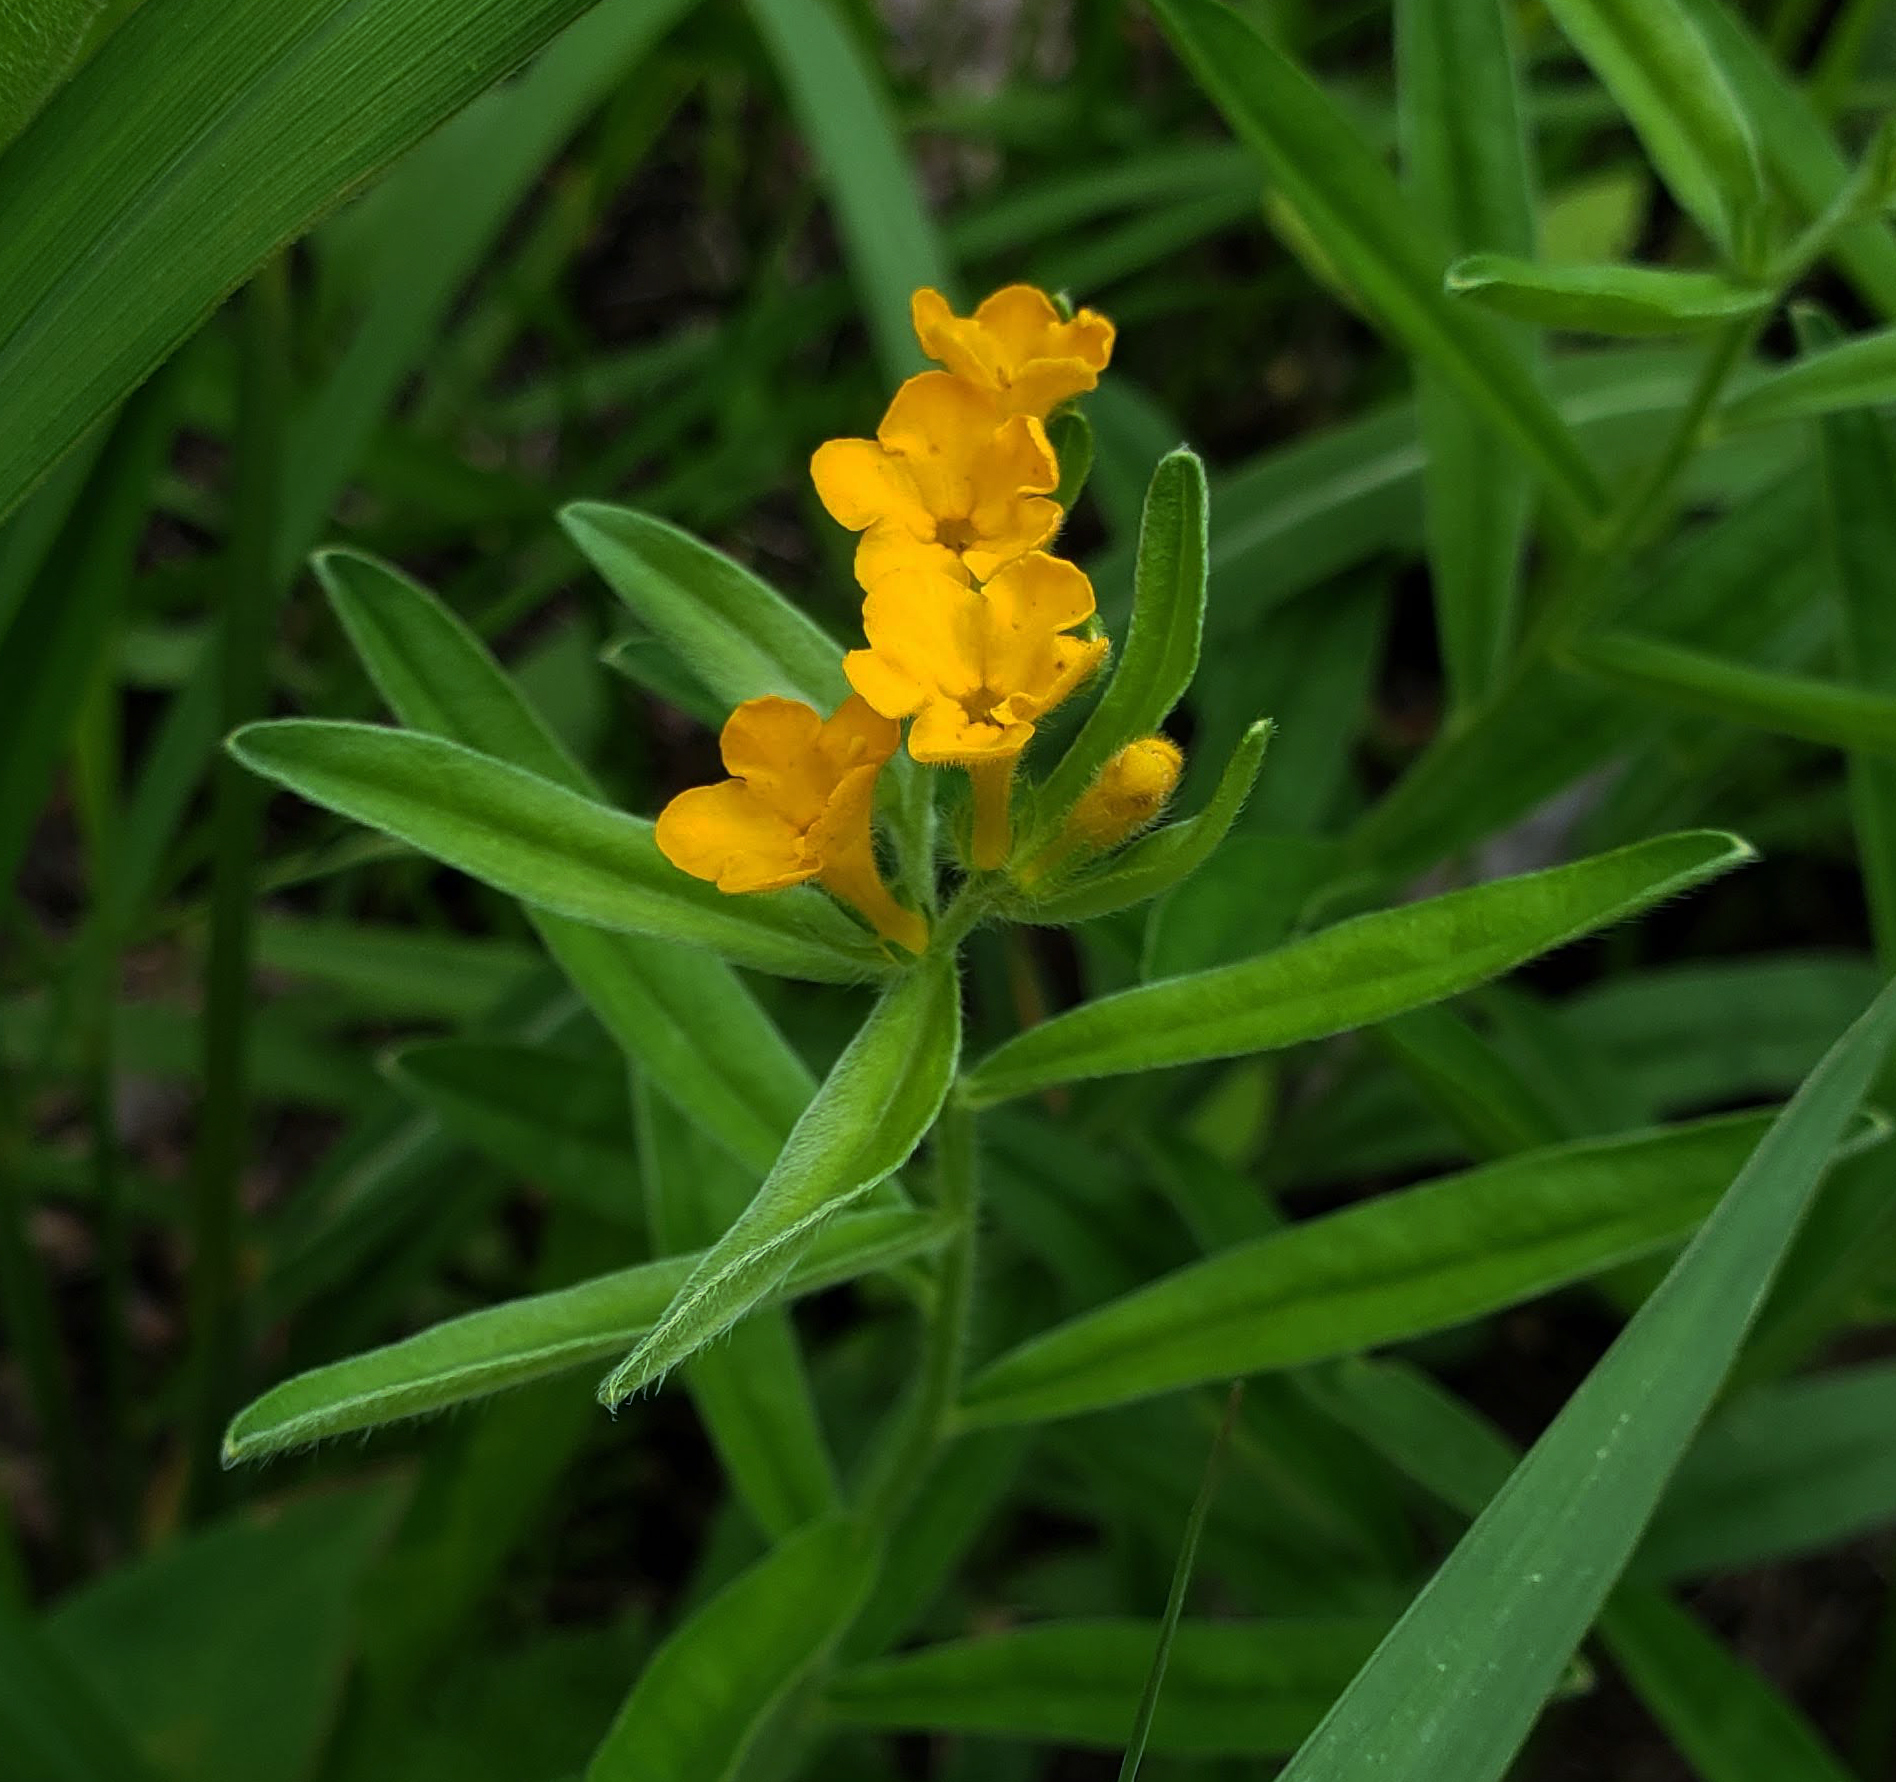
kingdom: Plantae
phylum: Tracheophyta
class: Magnoliopsida
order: Boraginales
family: Boraginaceae
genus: Lithospermum
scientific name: Lithospermum canescens
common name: Hoary puccoon
